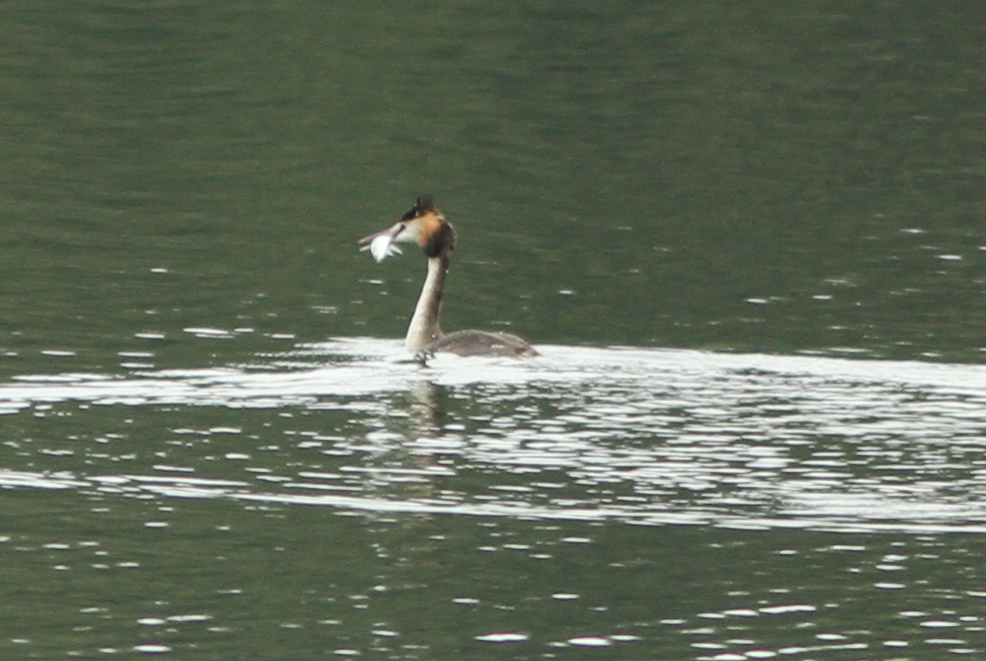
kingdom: Animalia
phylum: Chordata
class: Aves
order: Podicipediformes
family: Podicipedidae
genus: Podiceps
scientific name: Podiceps cristatus
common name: Great crested grebe
